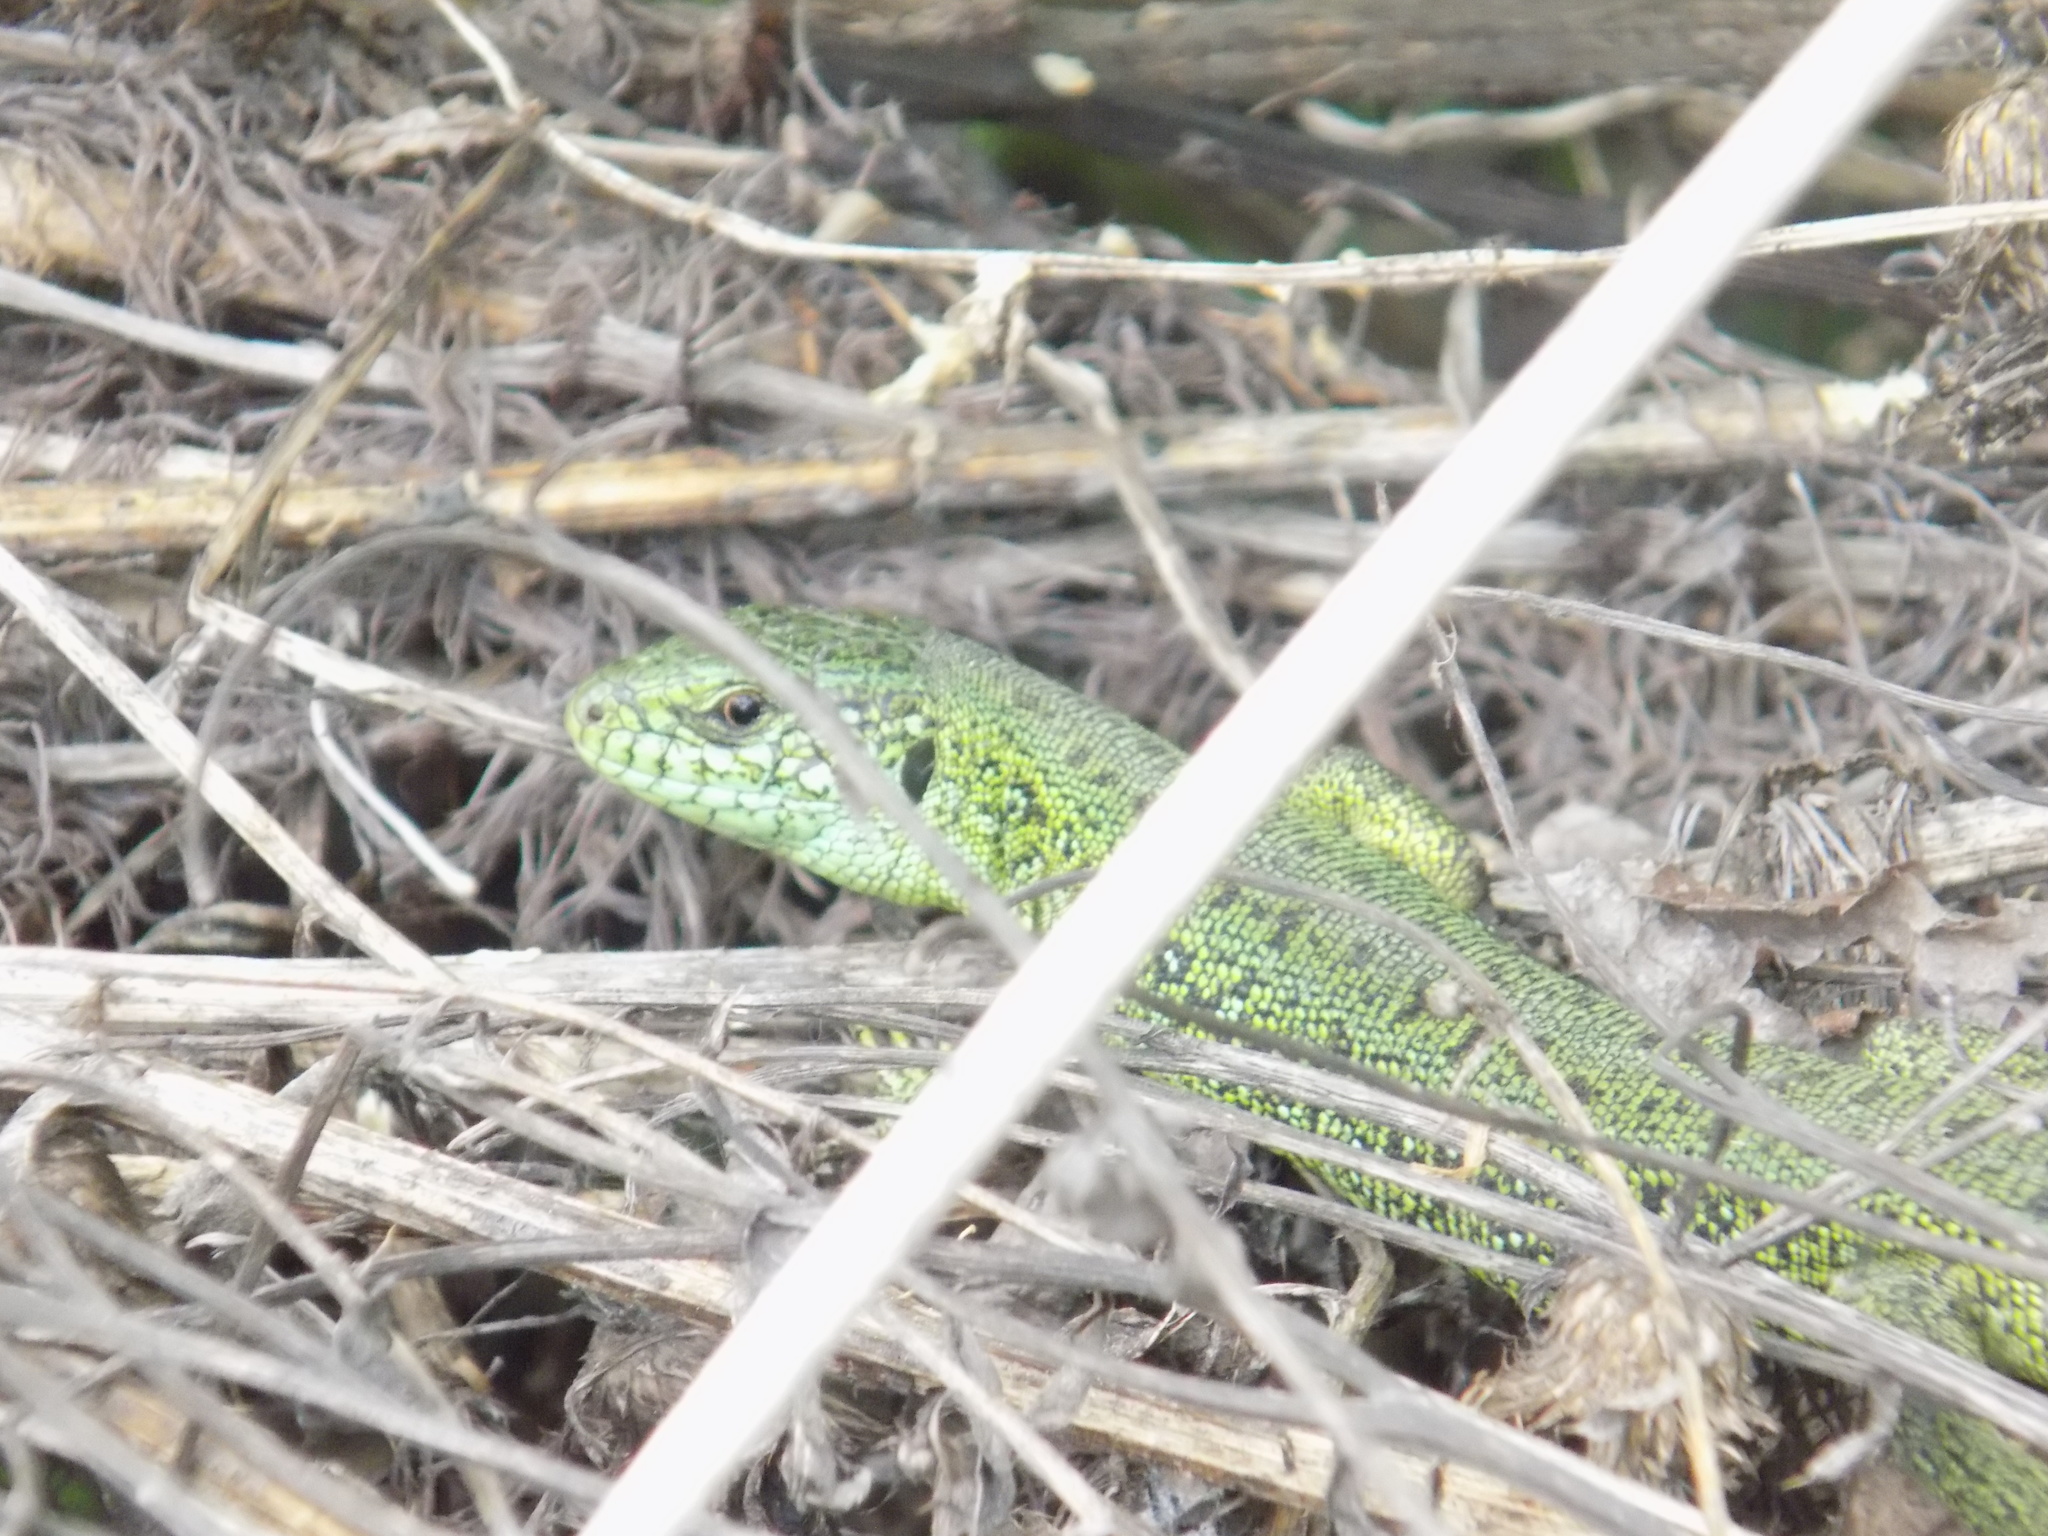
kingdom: Animalia
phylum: Chordata
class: Squamata
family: Lacertidae
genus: Lacerta
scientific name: Lacerta agilis
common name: Sand lizard
